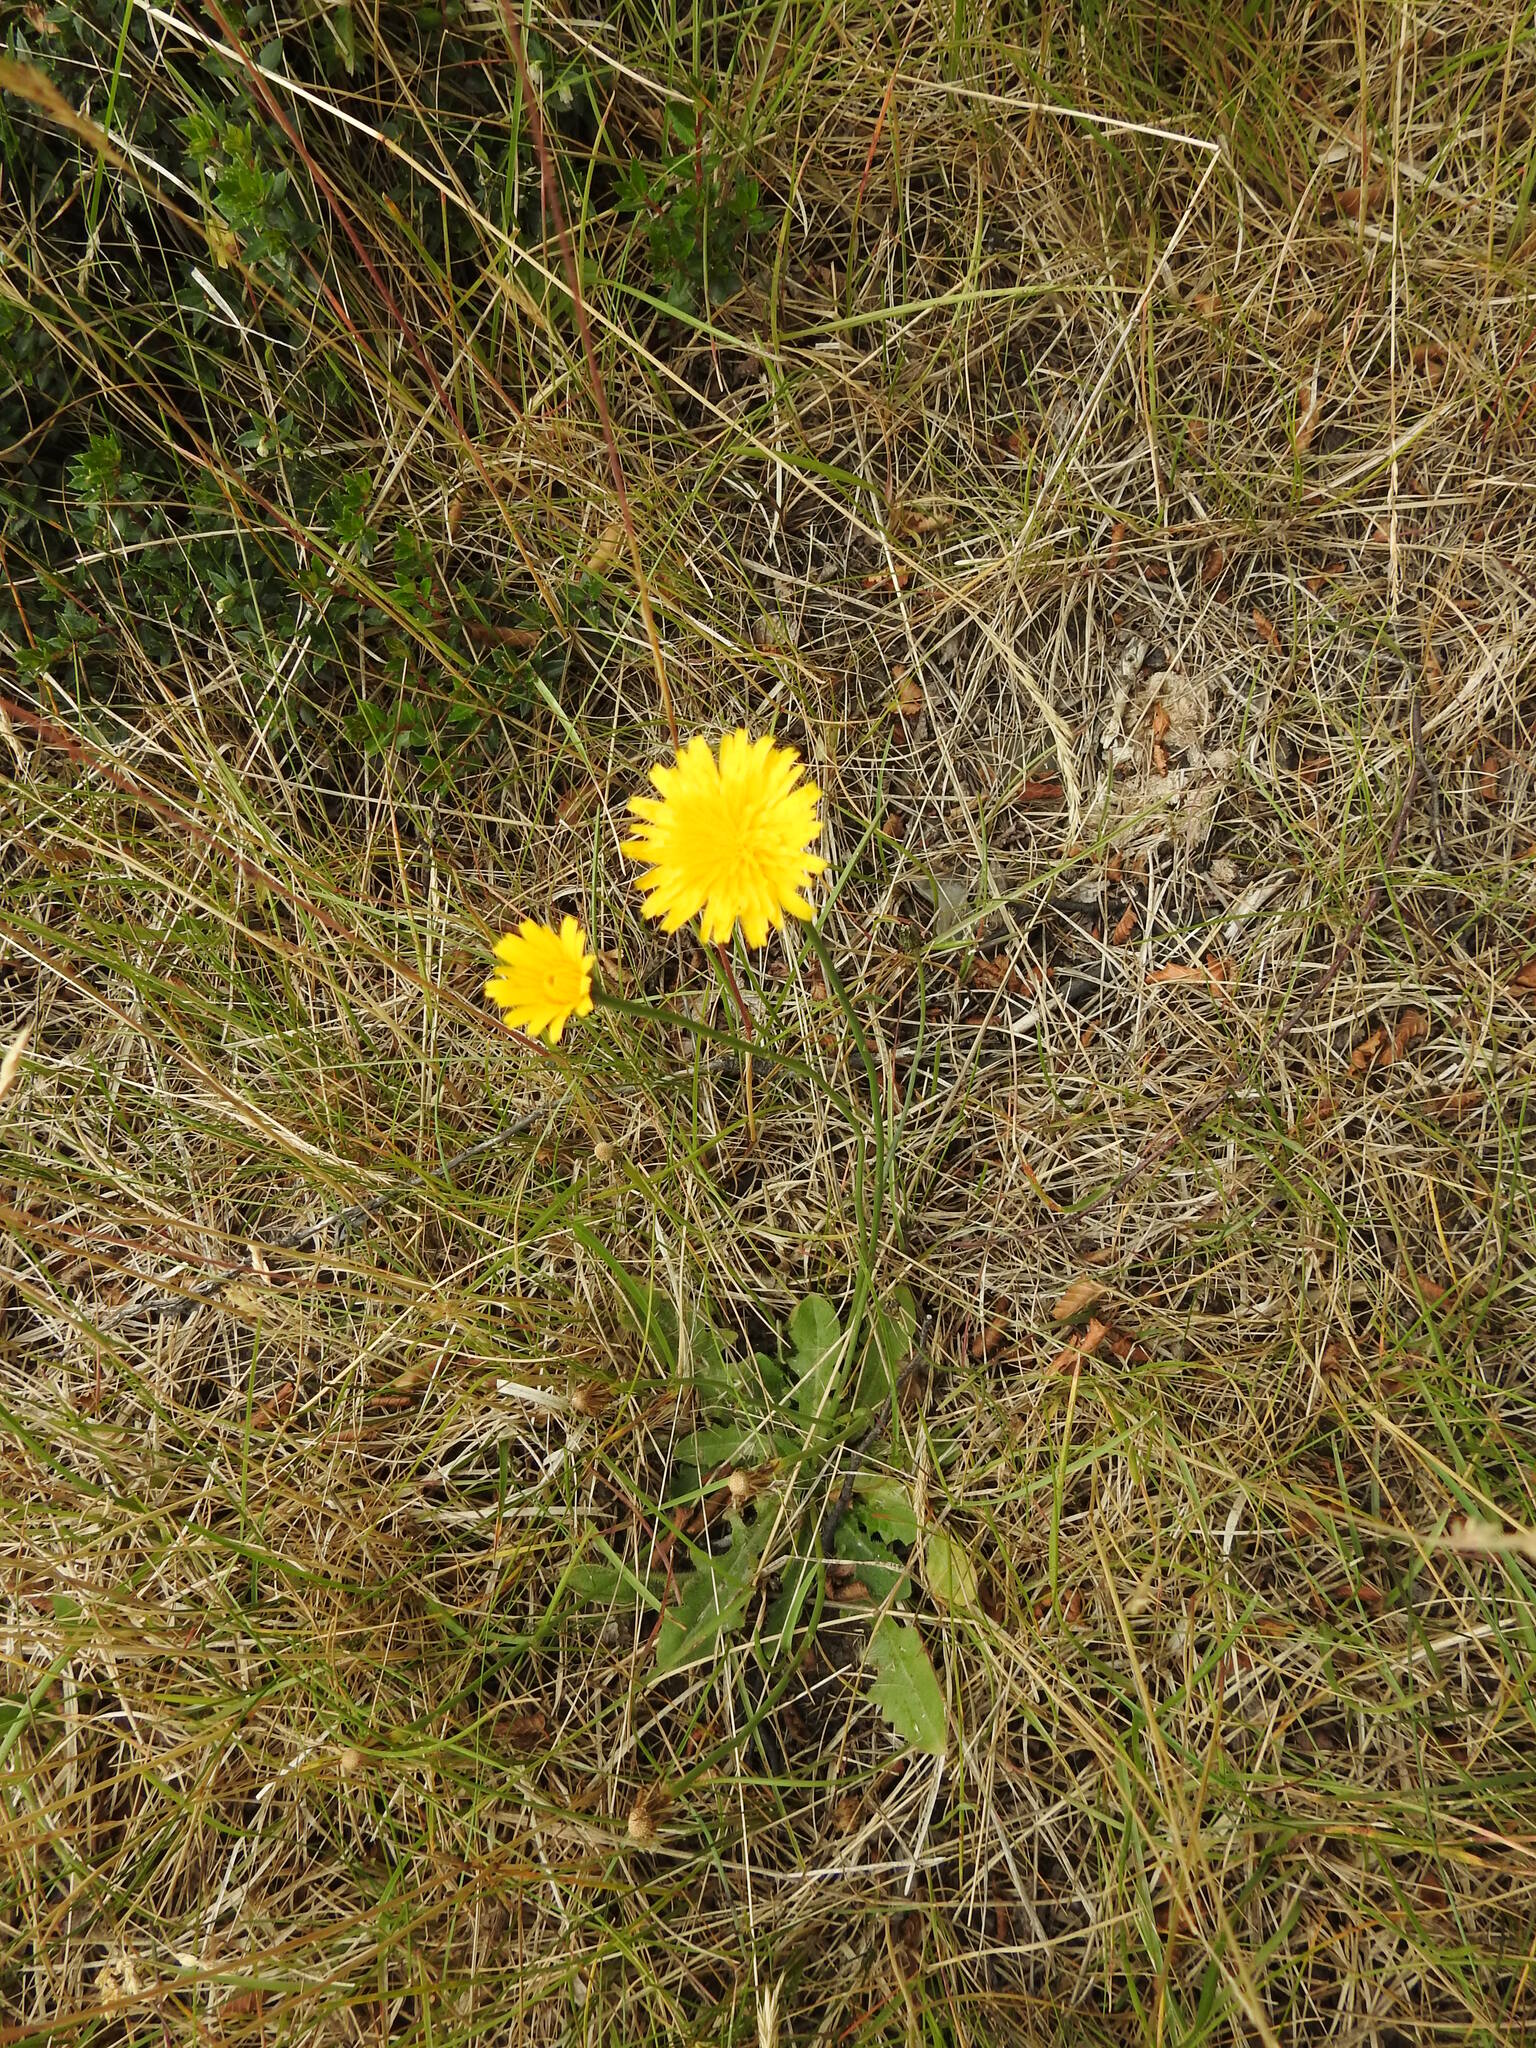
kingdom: Plantae
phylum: Tracheophyta
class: Magnoliopsida
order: Asterales
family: Asteraceae
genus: Hypochaeris
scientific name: Hypochaeris radicata
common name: Flatweed
